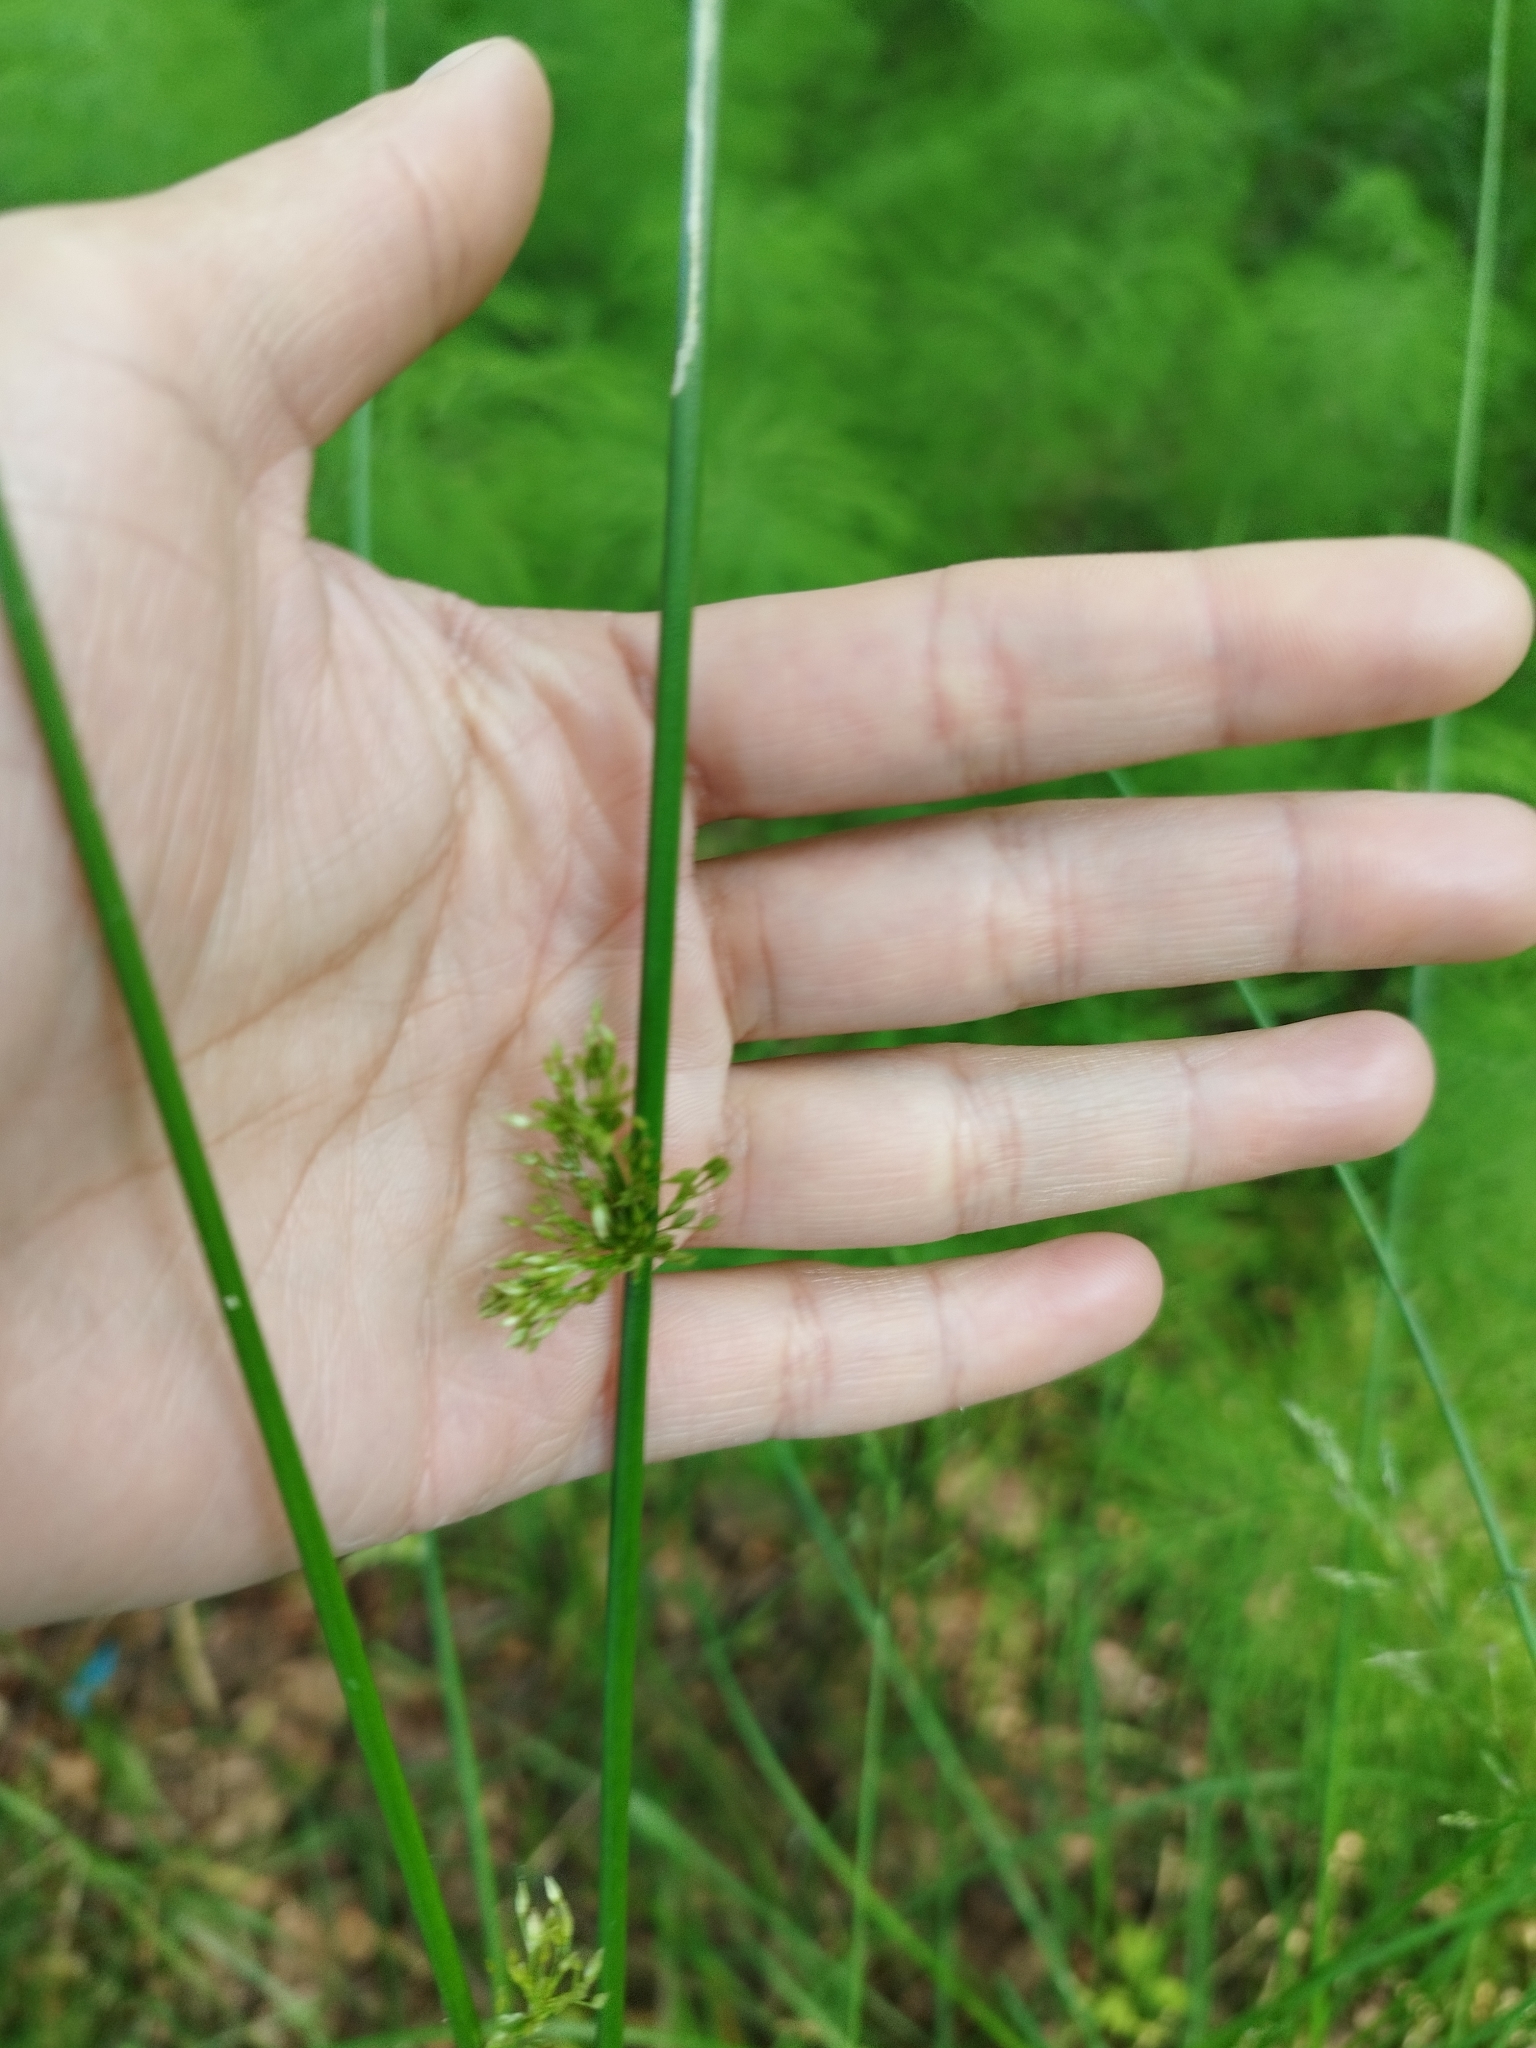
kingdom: Plantae
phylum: Tracheophyta
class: Liliopsida
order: Poales
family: Juncaceae
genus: Juncus
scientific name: Juncus effusus
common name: Soft rush
